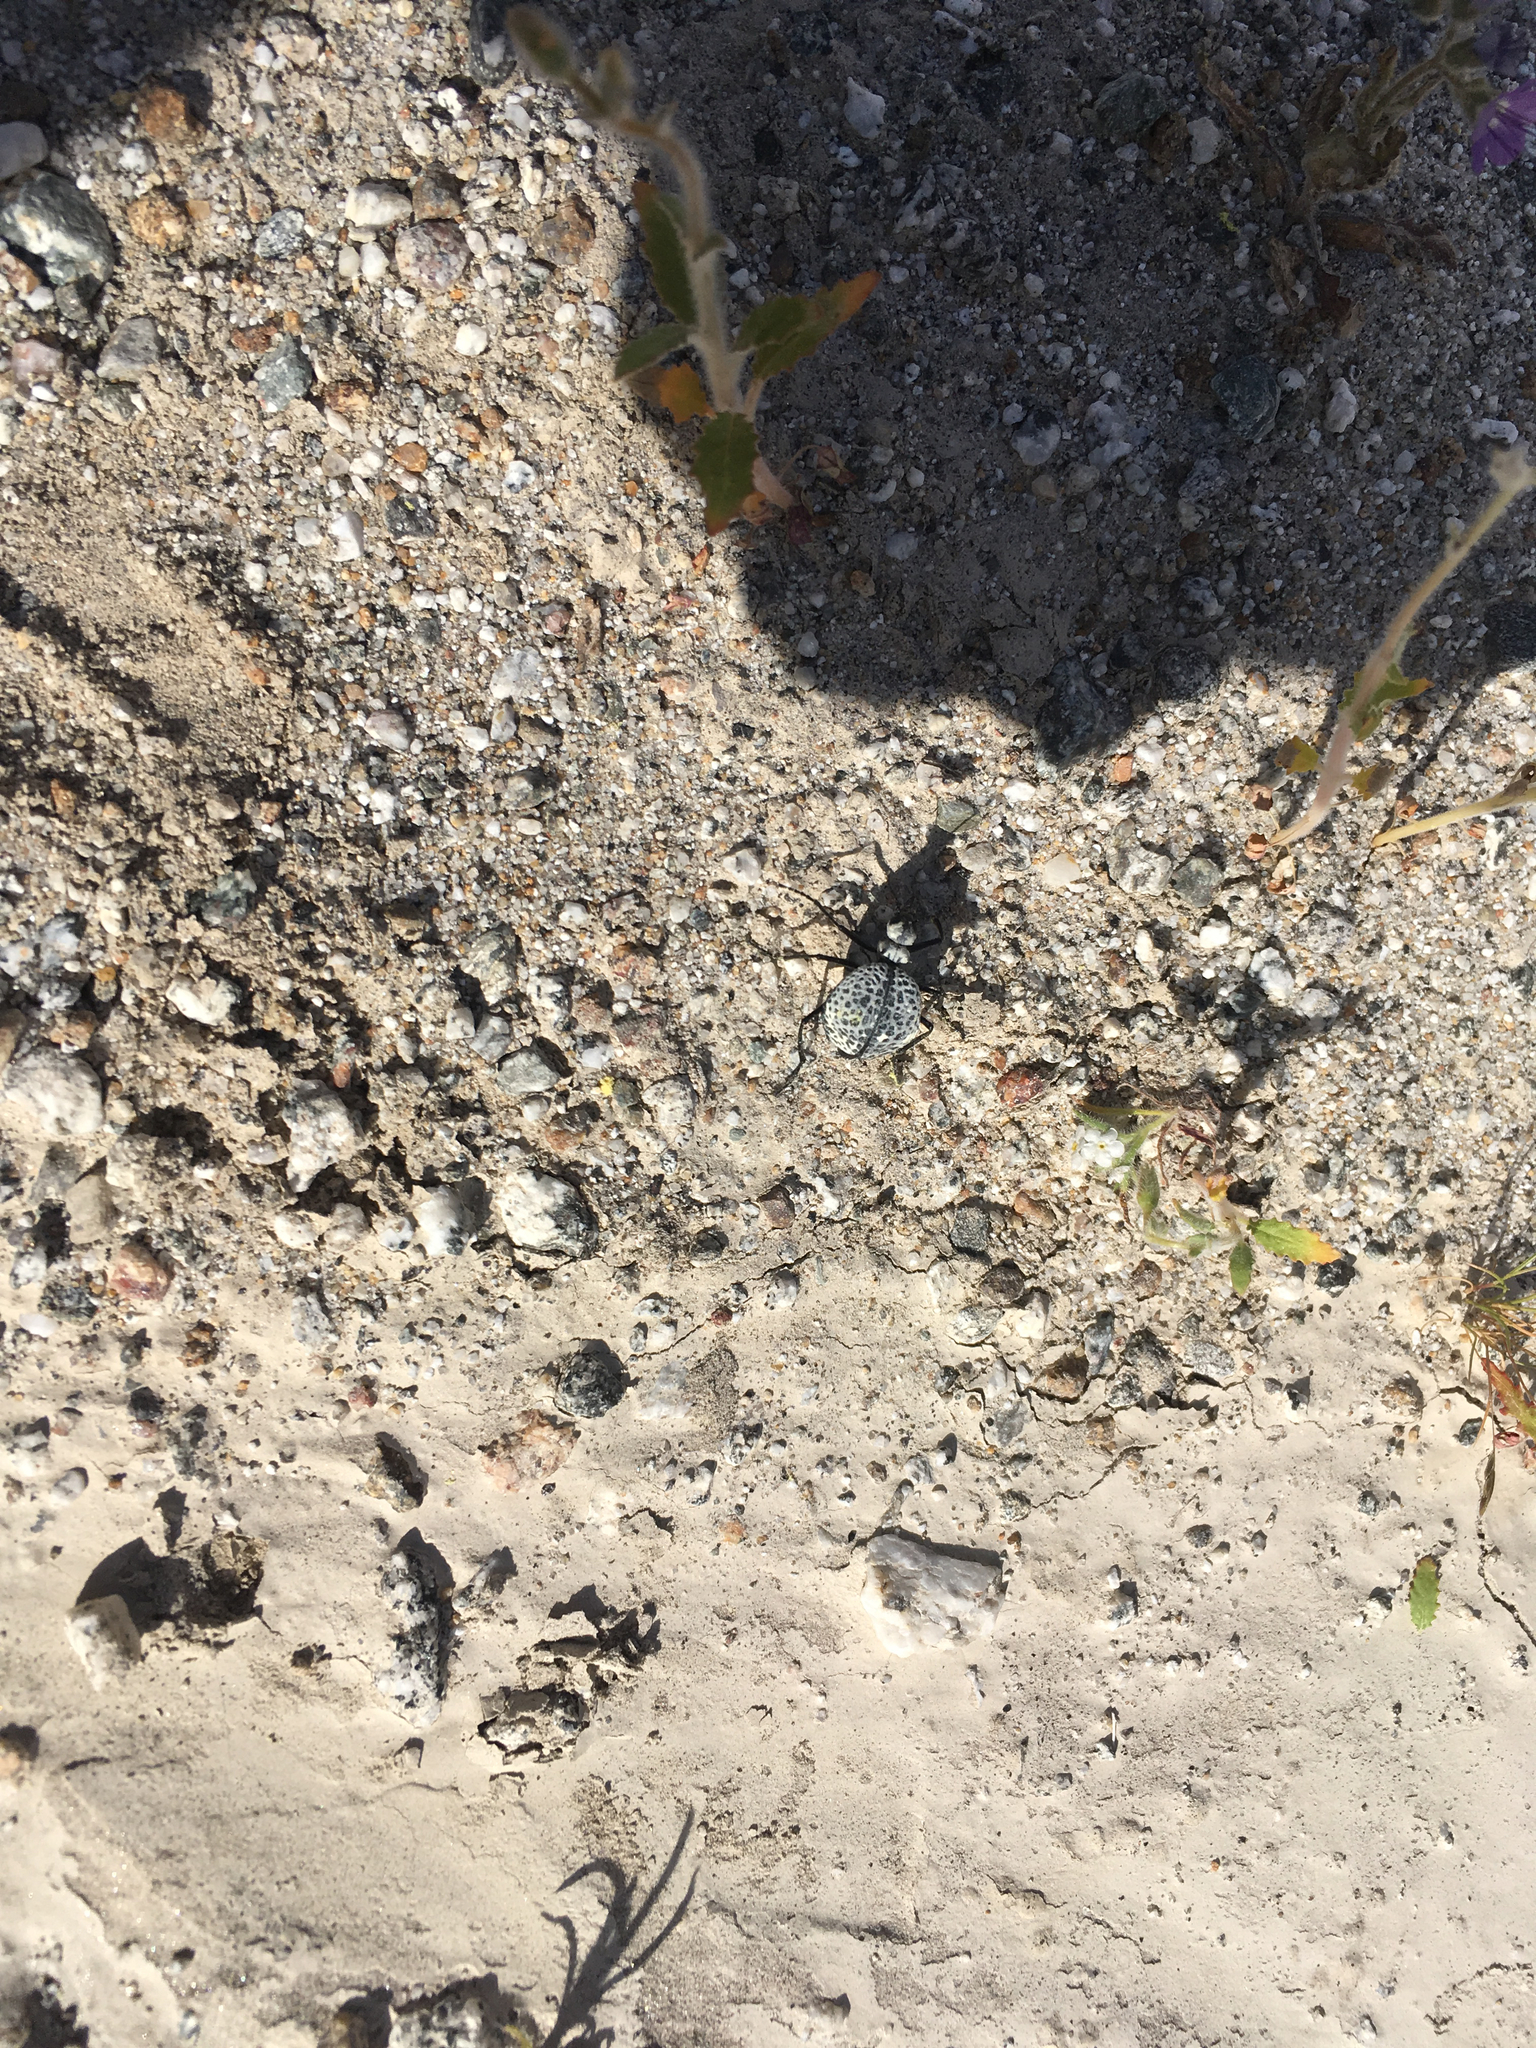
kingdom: Animalia
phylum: Arthropoda
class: Insecta
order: Coleoptera
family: Meloidae
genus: Cysteodemus
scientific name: Cysteodemus armatus
